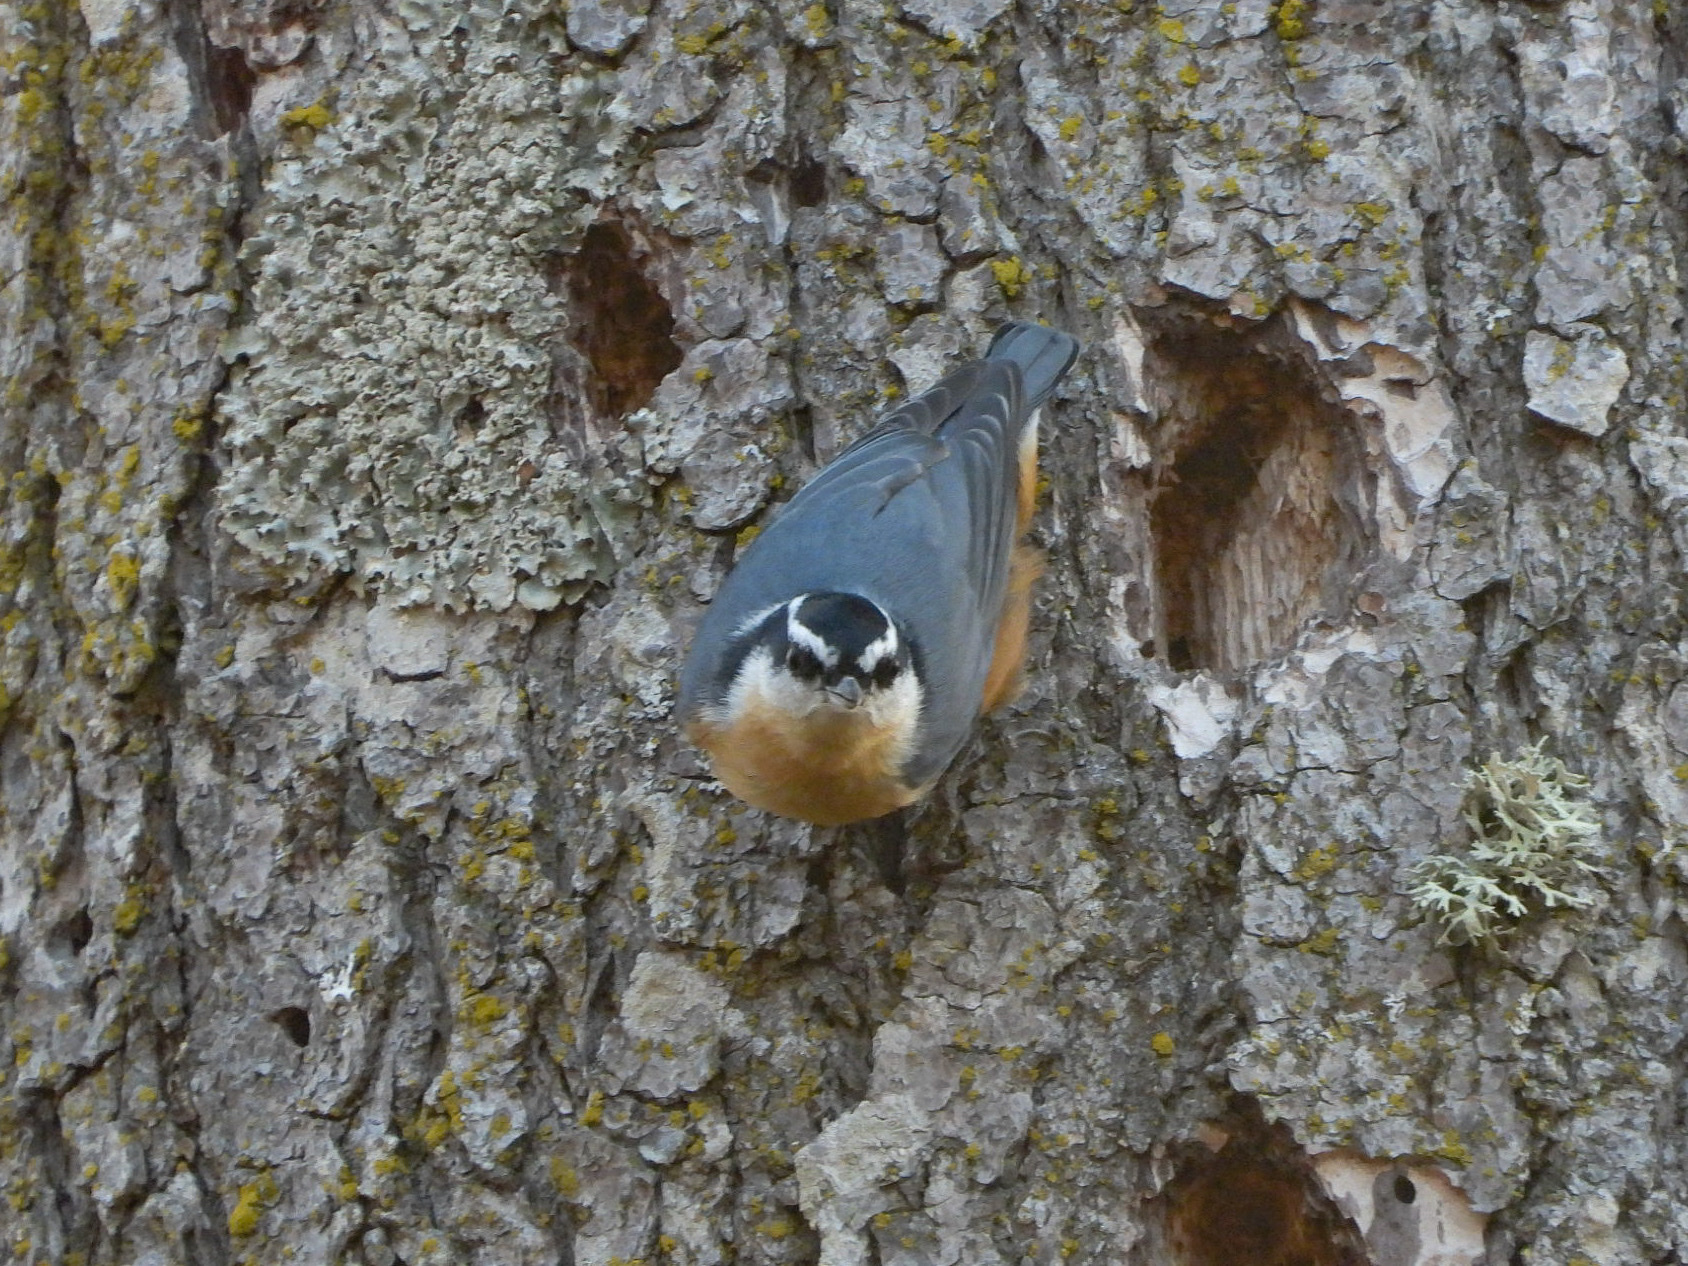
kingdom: Animalia
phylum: Chordata
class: Aves
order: Passeriformes
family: Sittidae
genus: Sitta
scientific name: Sitta canadensis
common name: Red-breasted nuthatch
